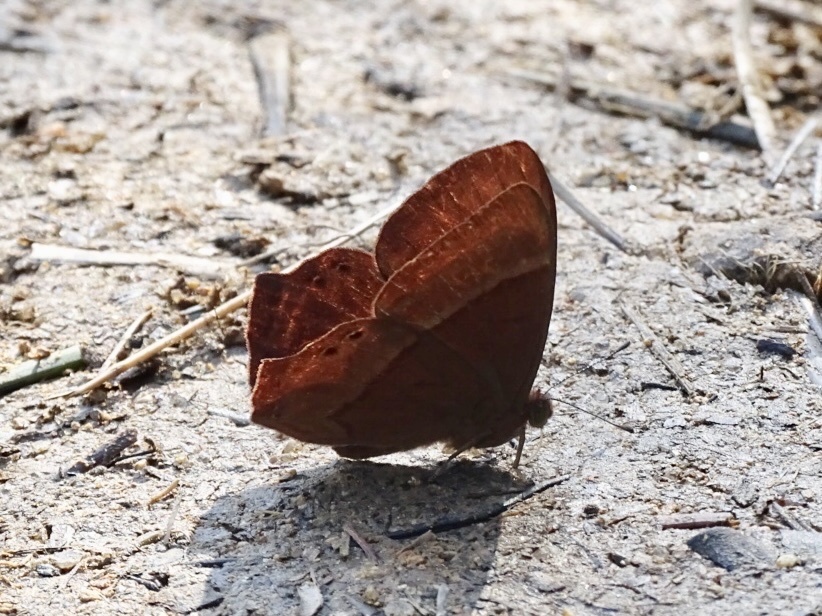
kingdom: Animalia
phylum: Arthropoda
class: Insecta
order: Lepidoptera
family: Lycaenidae
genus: Abisara
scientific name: Abisara echeria
